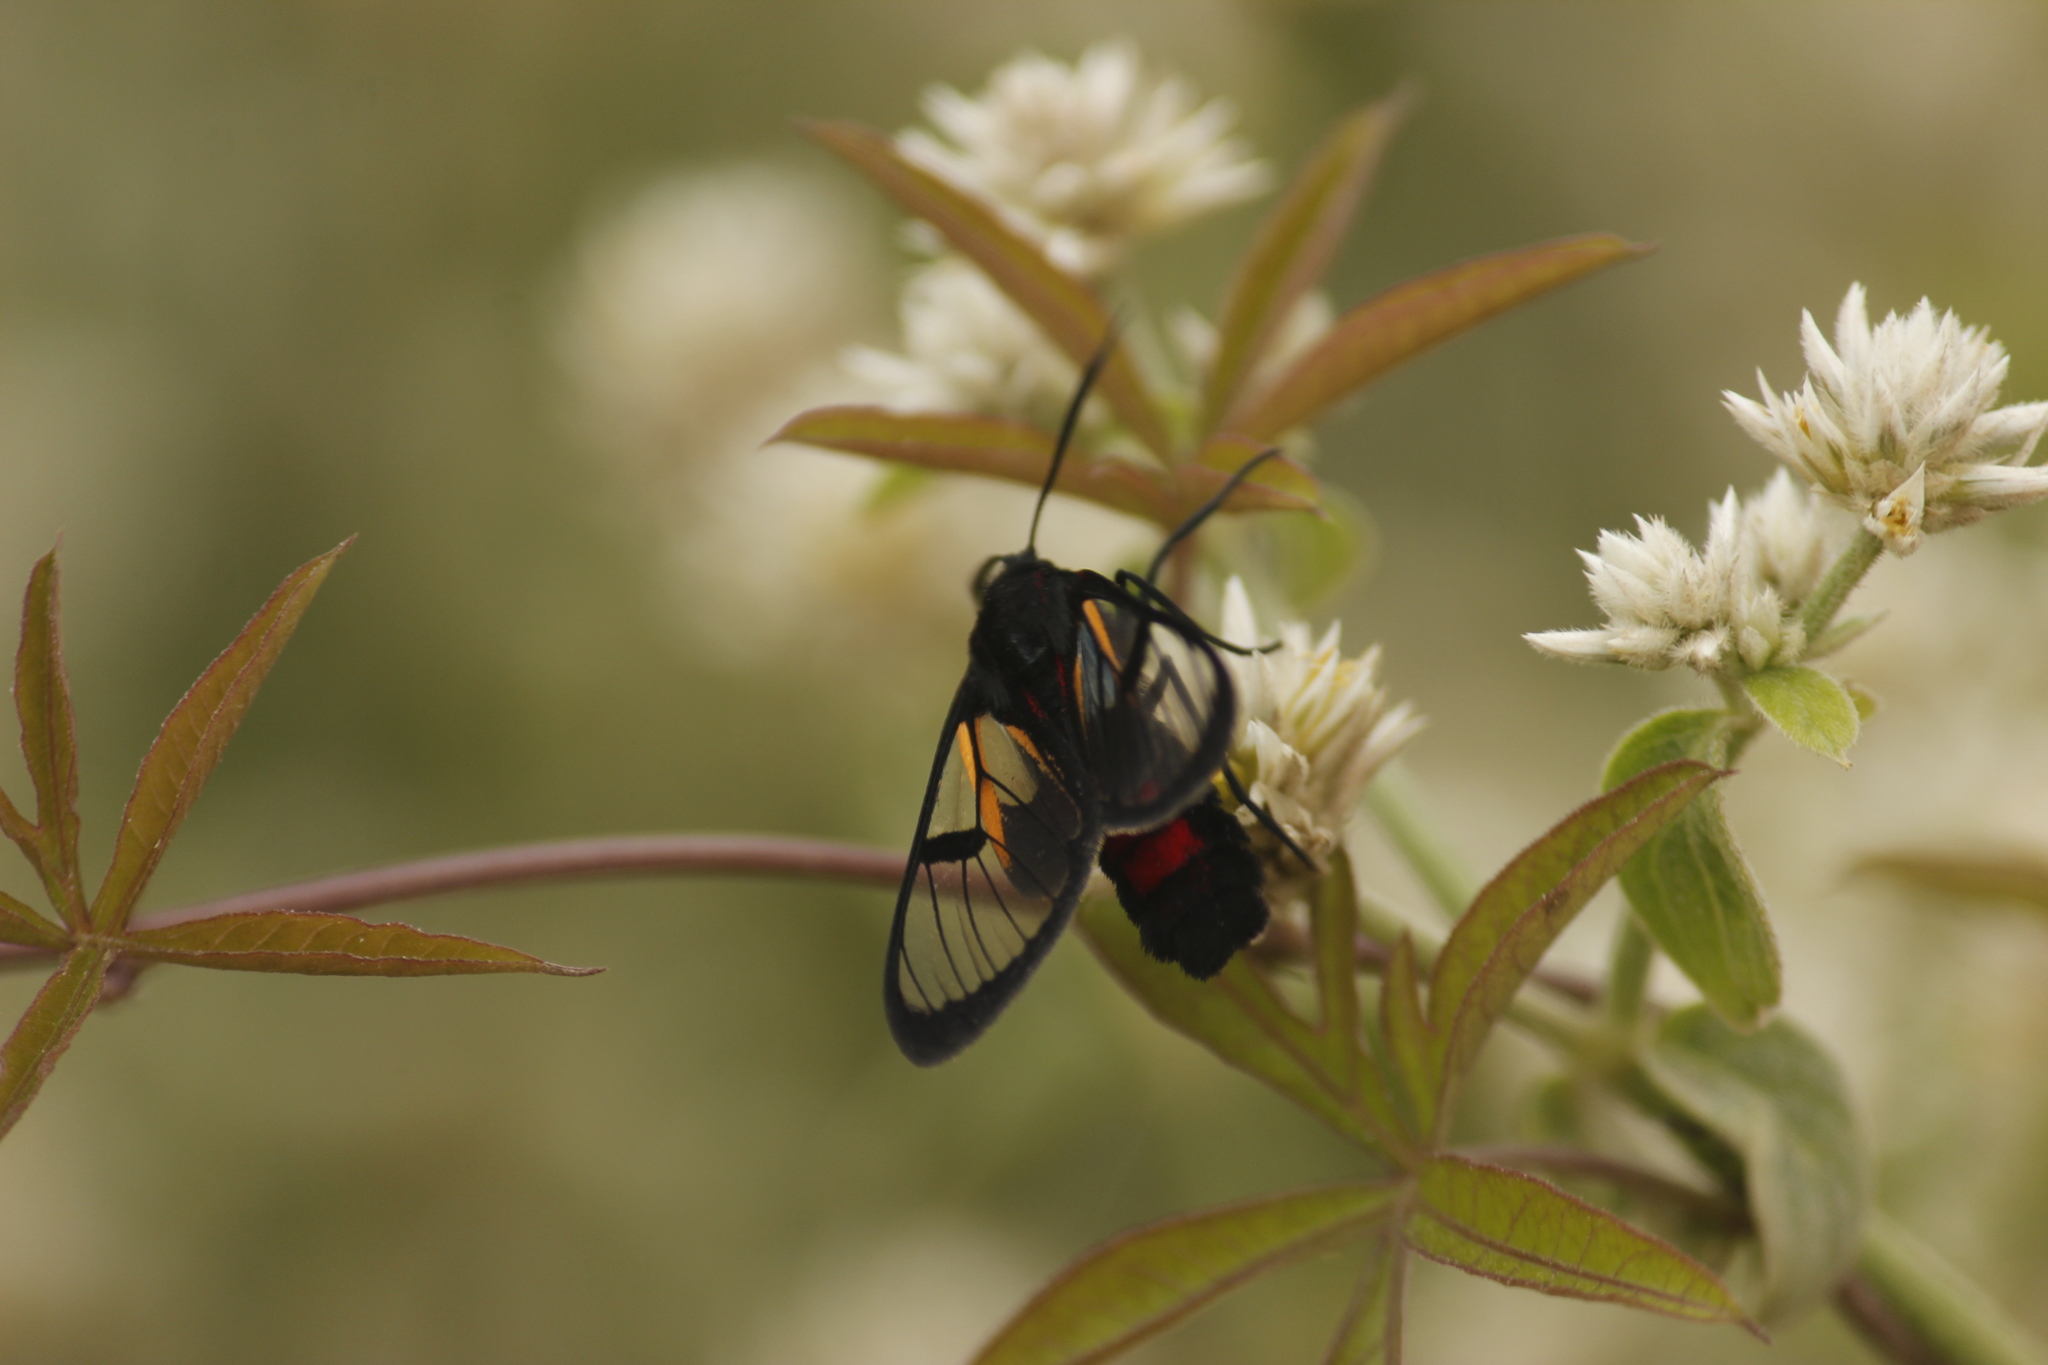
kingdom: Animalia
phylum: Arthropoda
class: Insecta
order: Lepidoptera
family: Erebidae
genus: Dinia
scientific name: Dinia subapicalis
